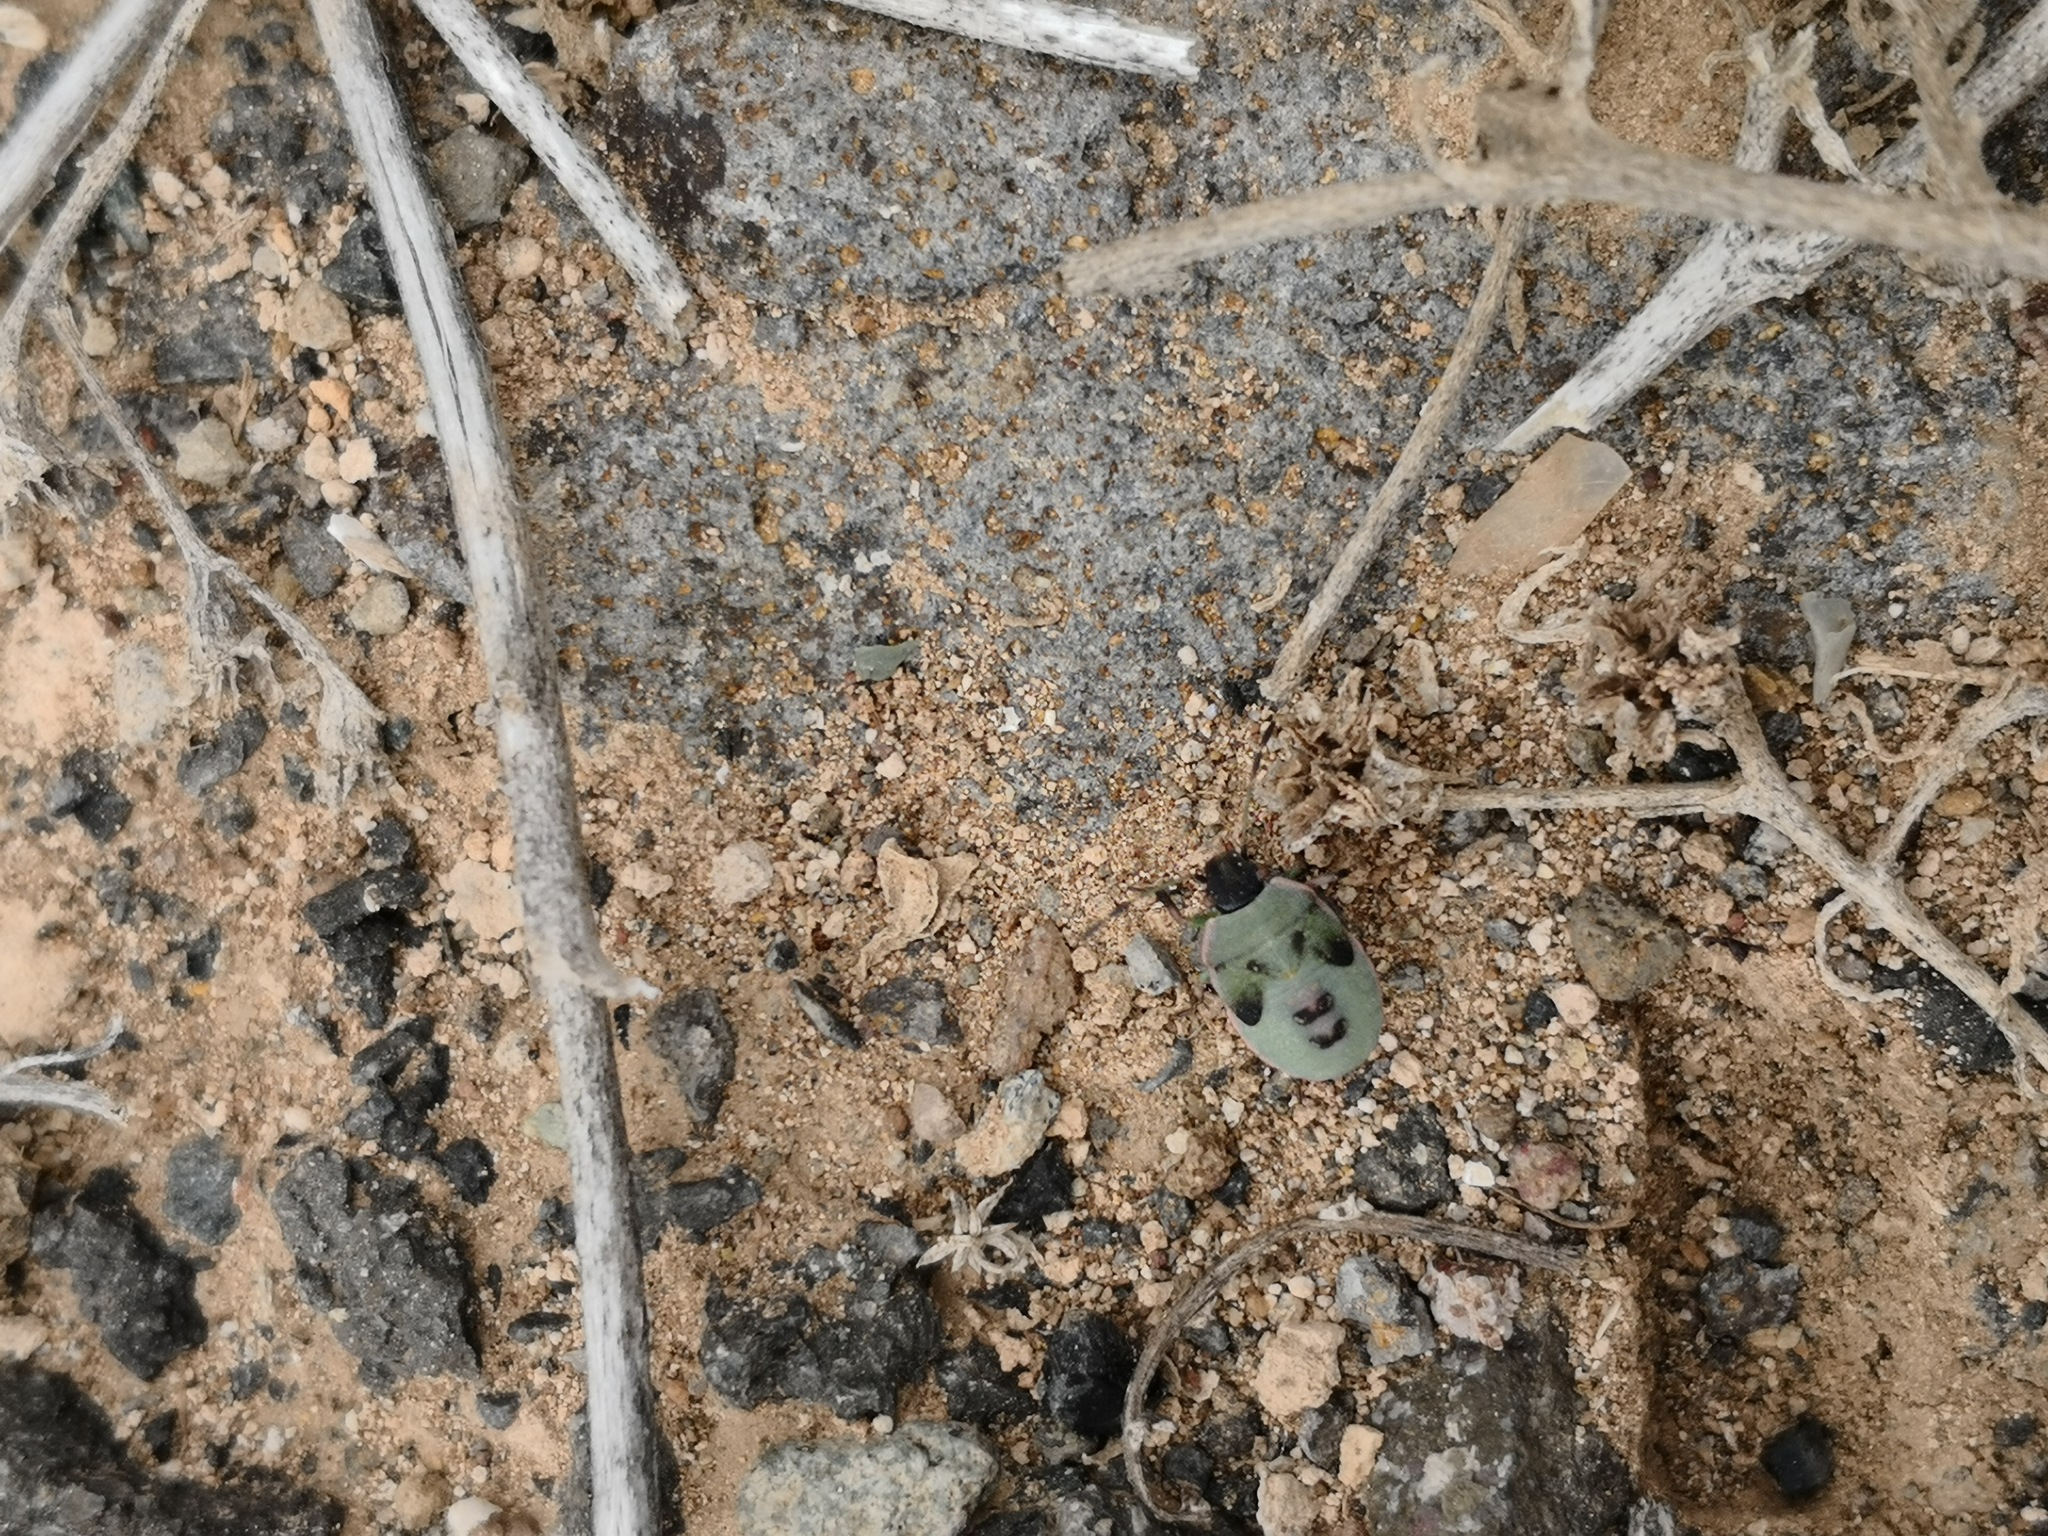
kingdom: Animalia
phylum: Arthropoda
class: Insecta
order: Hemiptera
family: Pentatomidae
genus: Brachynema
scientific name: Brachynema cinctum
